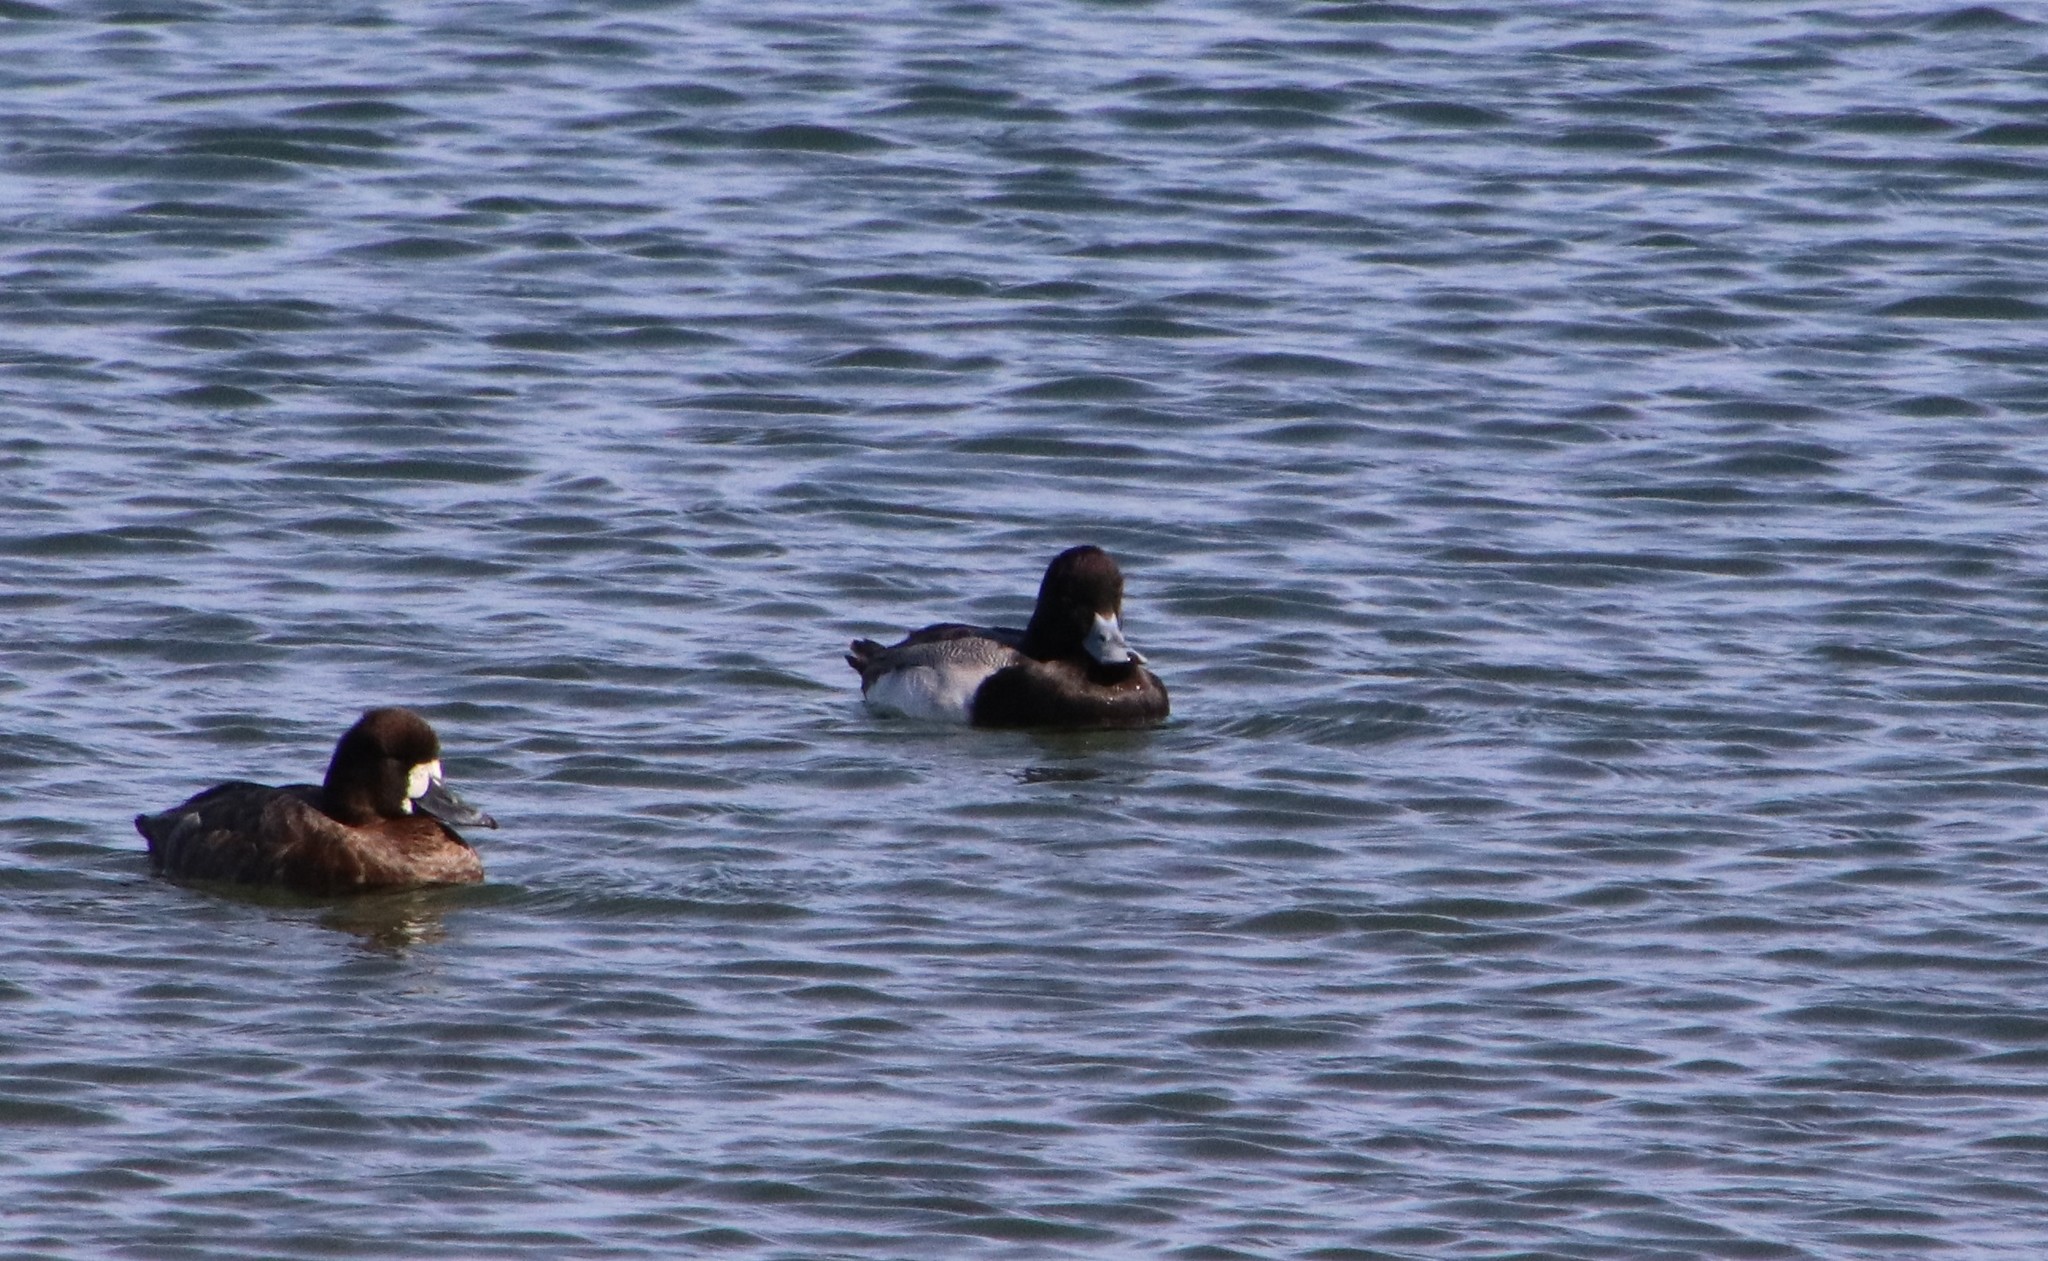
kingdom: Animalia
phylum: Chordata
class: Aves
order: Anseriformes
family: Anatidae
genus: Aythya
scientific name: Aythya affinis
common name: Lesser scaup
